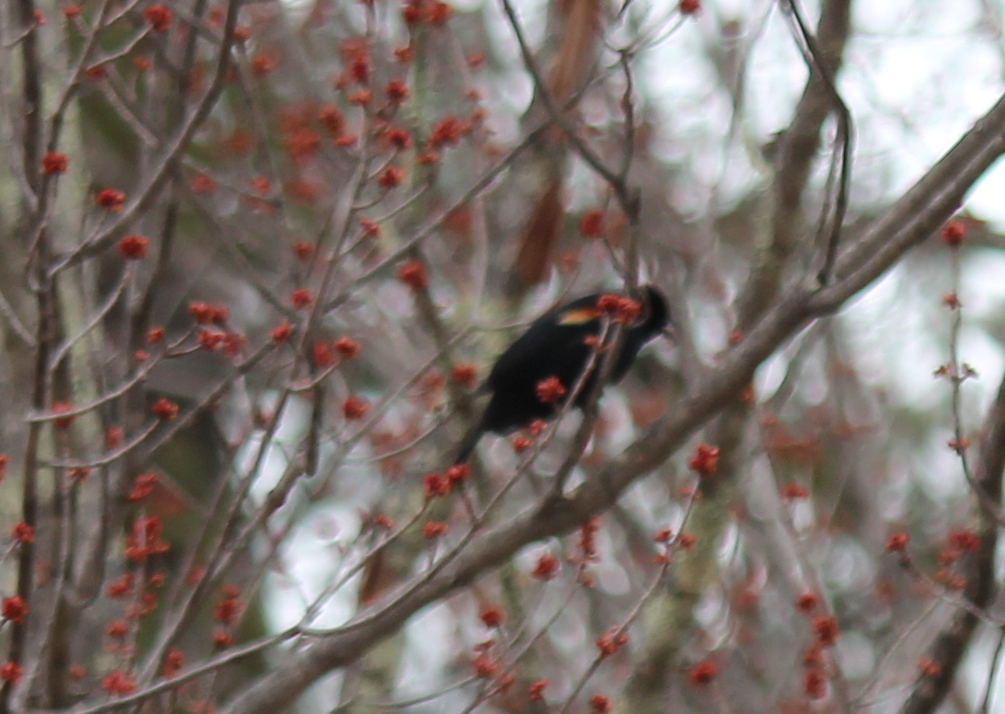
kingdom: Animalia
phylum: Chordata
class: Aves
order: Passeriformes
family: Icteridae
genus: Agelaius
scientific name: Agelaius phoeniceus
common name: Red-winged blackbird
